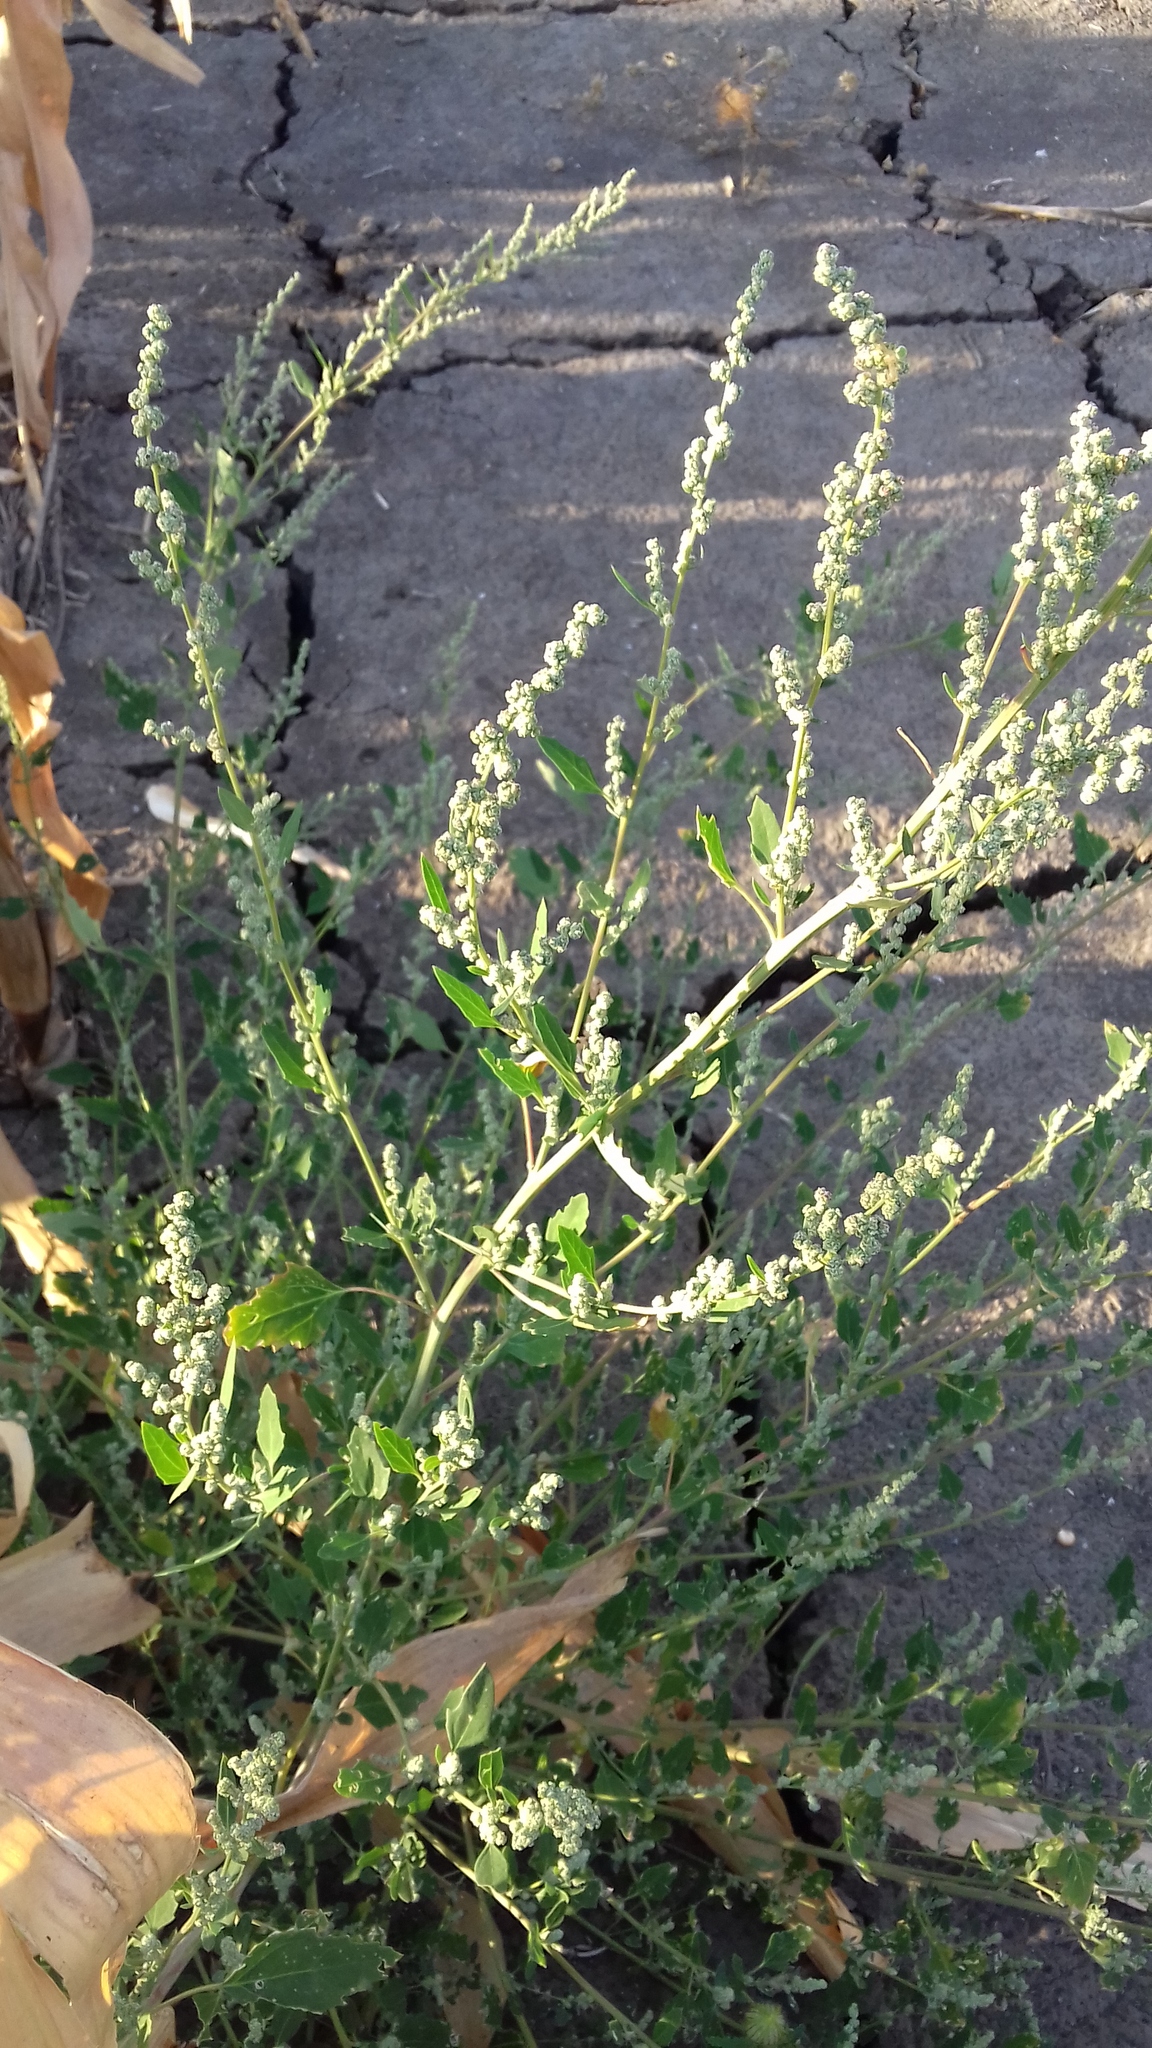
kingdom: Plantae
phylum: Tracheophyta
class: Magnoliopsida
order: Caryophyllales
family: Amaranthaceae
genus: Chenopodium
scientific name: Chenopodium album
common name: Fat-hen
